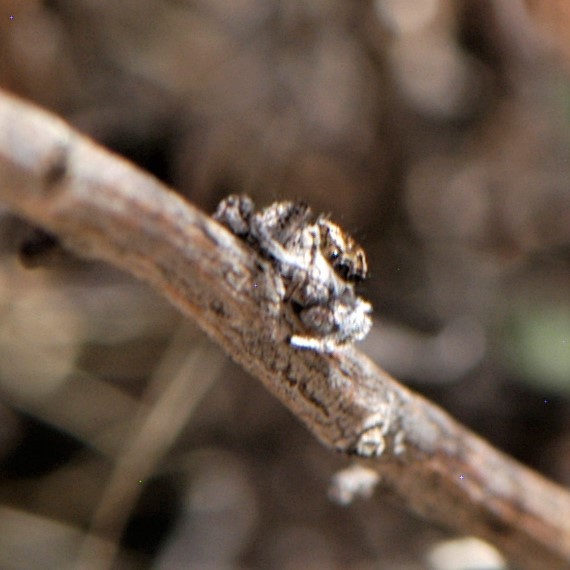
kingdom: Animalia
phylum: Arthropoda
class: Arachnida
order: Araneae
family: Salticidae
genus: Habronattus
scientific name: Habronattus conjunctus
